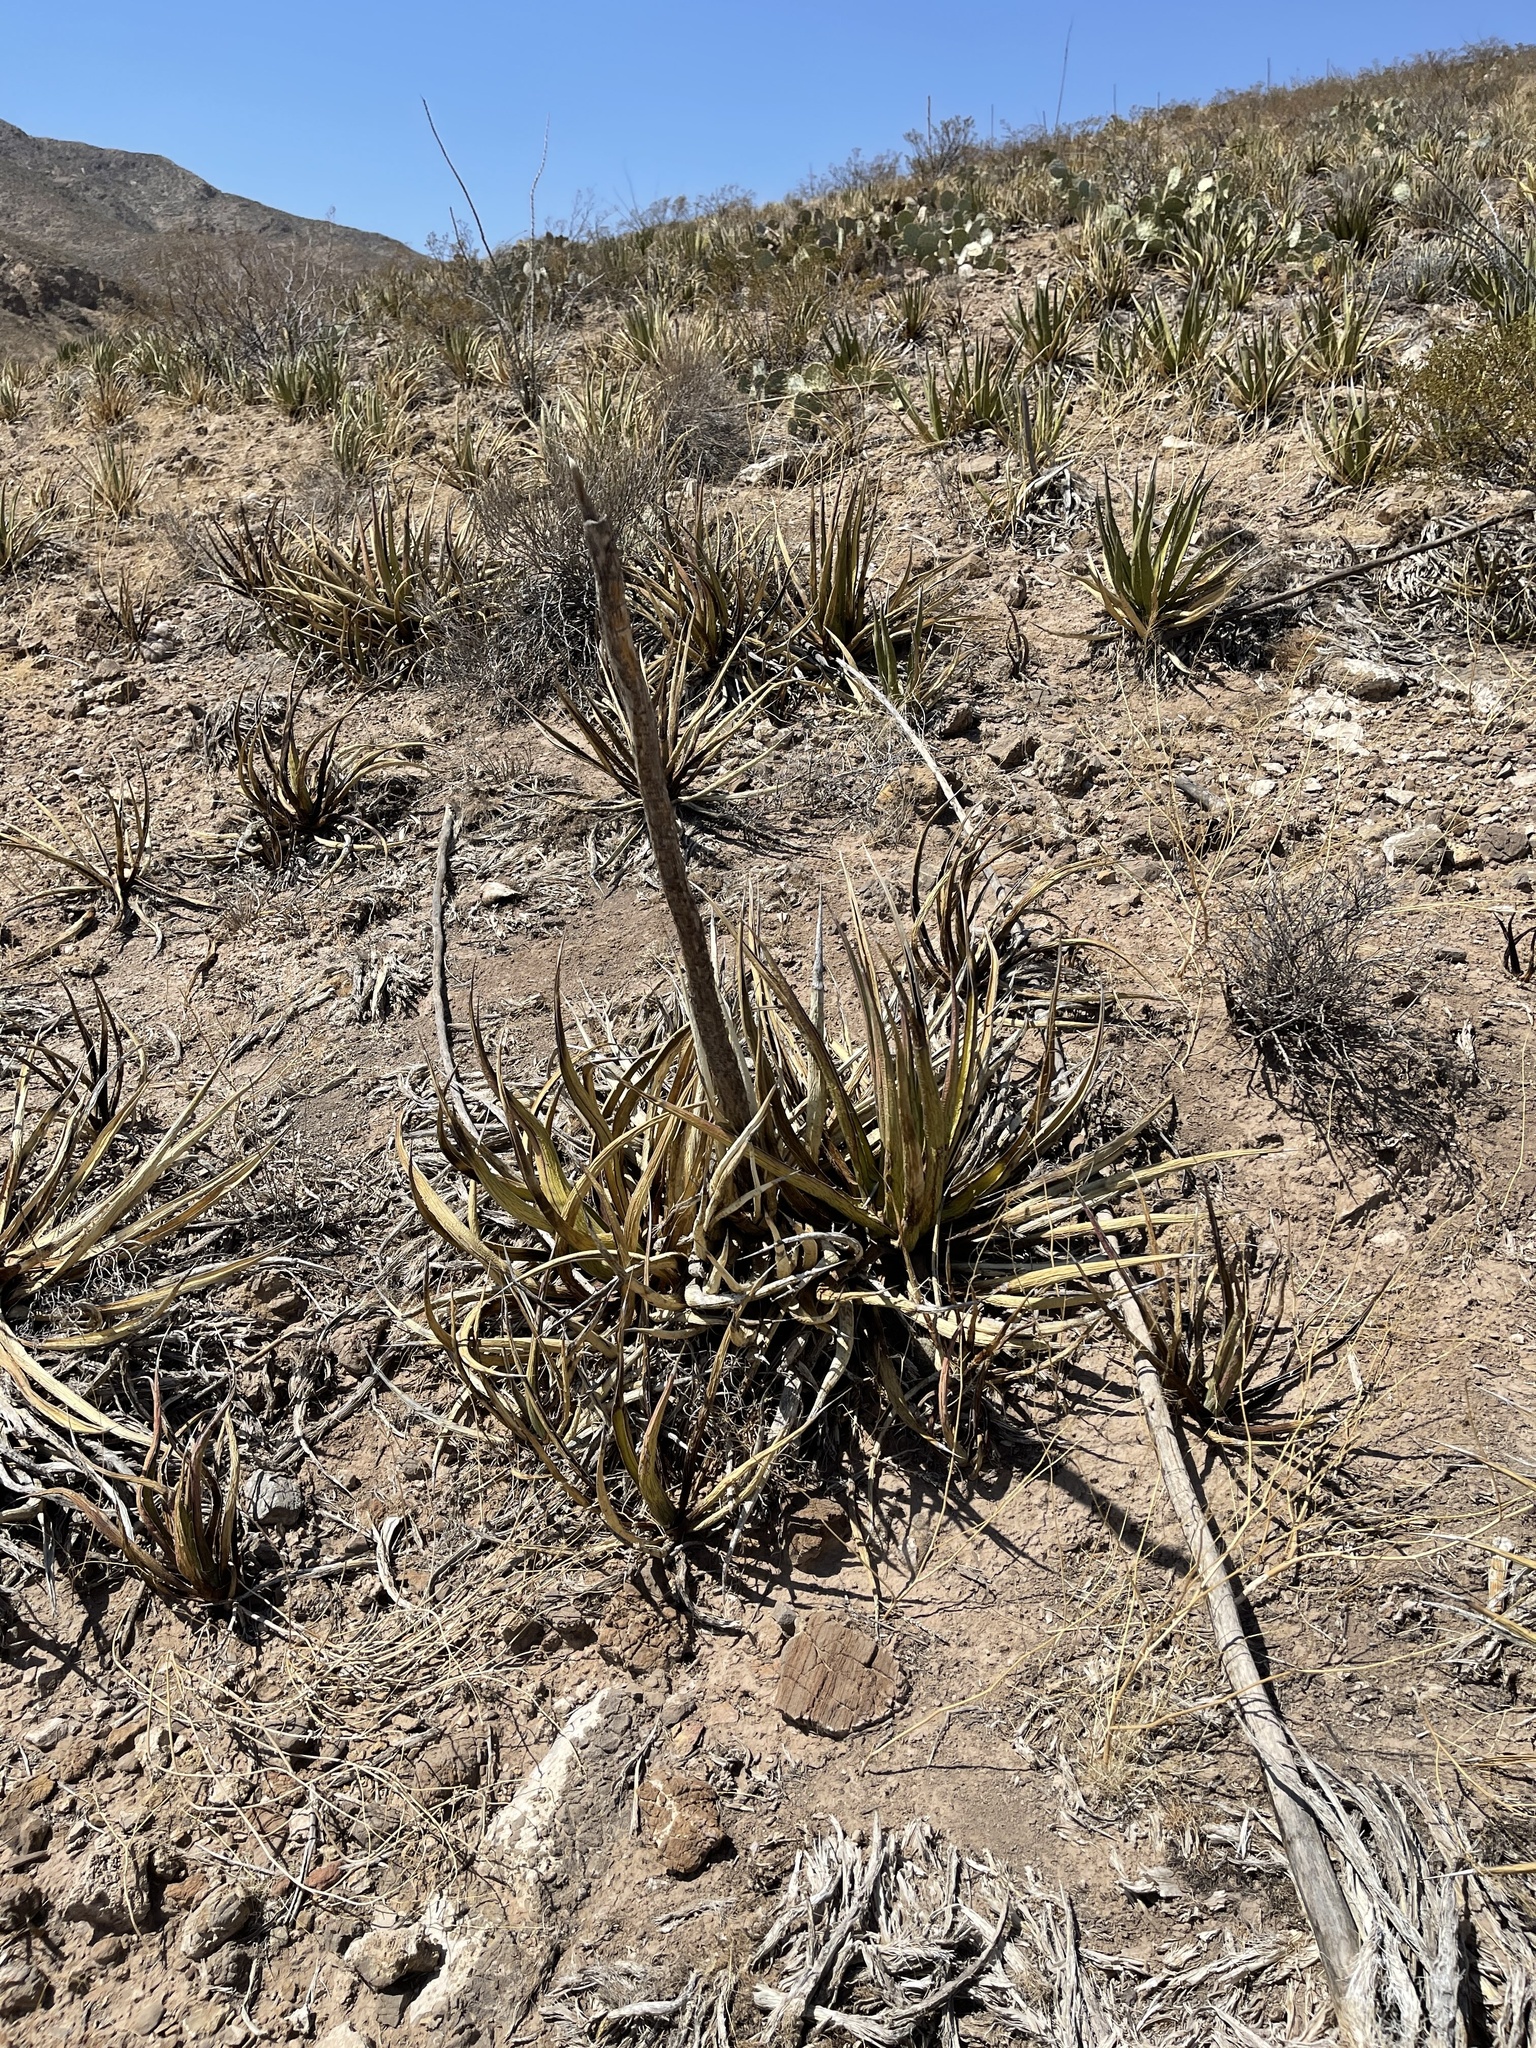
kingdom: Plantae
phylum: Tracheophyta
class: Liliopsida
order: Asparagales
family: Asparagaceae
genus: Agave
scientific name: Agave lechuguilla
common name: Lecheguilla agave
